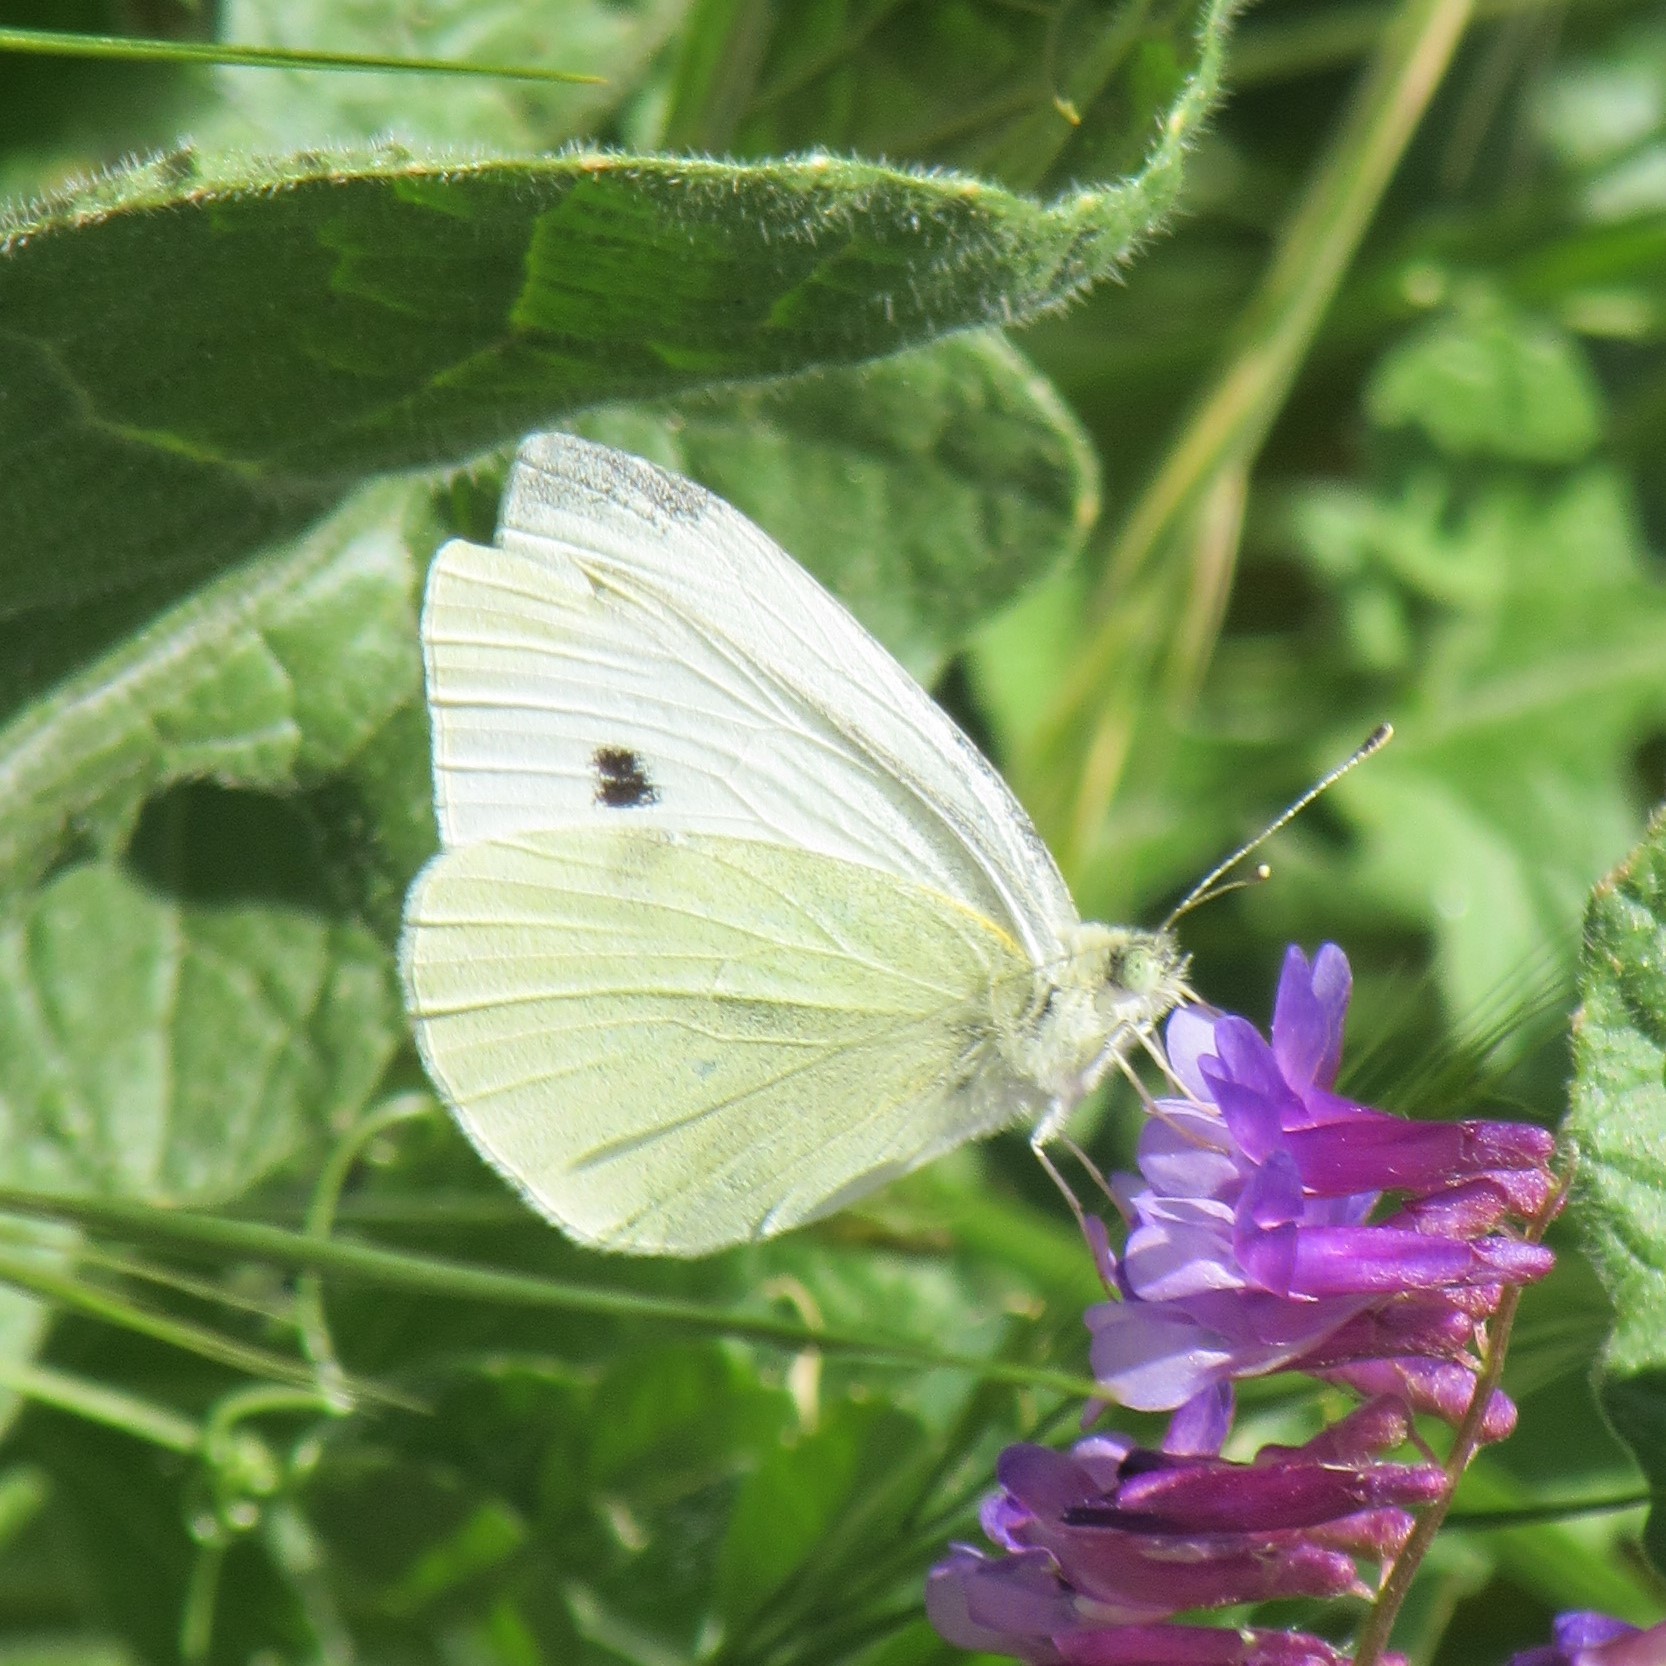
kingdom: Animalia
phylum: Arthropoda
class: Insecta
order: Lepidoptera
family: Pieridae
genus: Pieris
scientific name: Pieris rapae
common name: Small white
